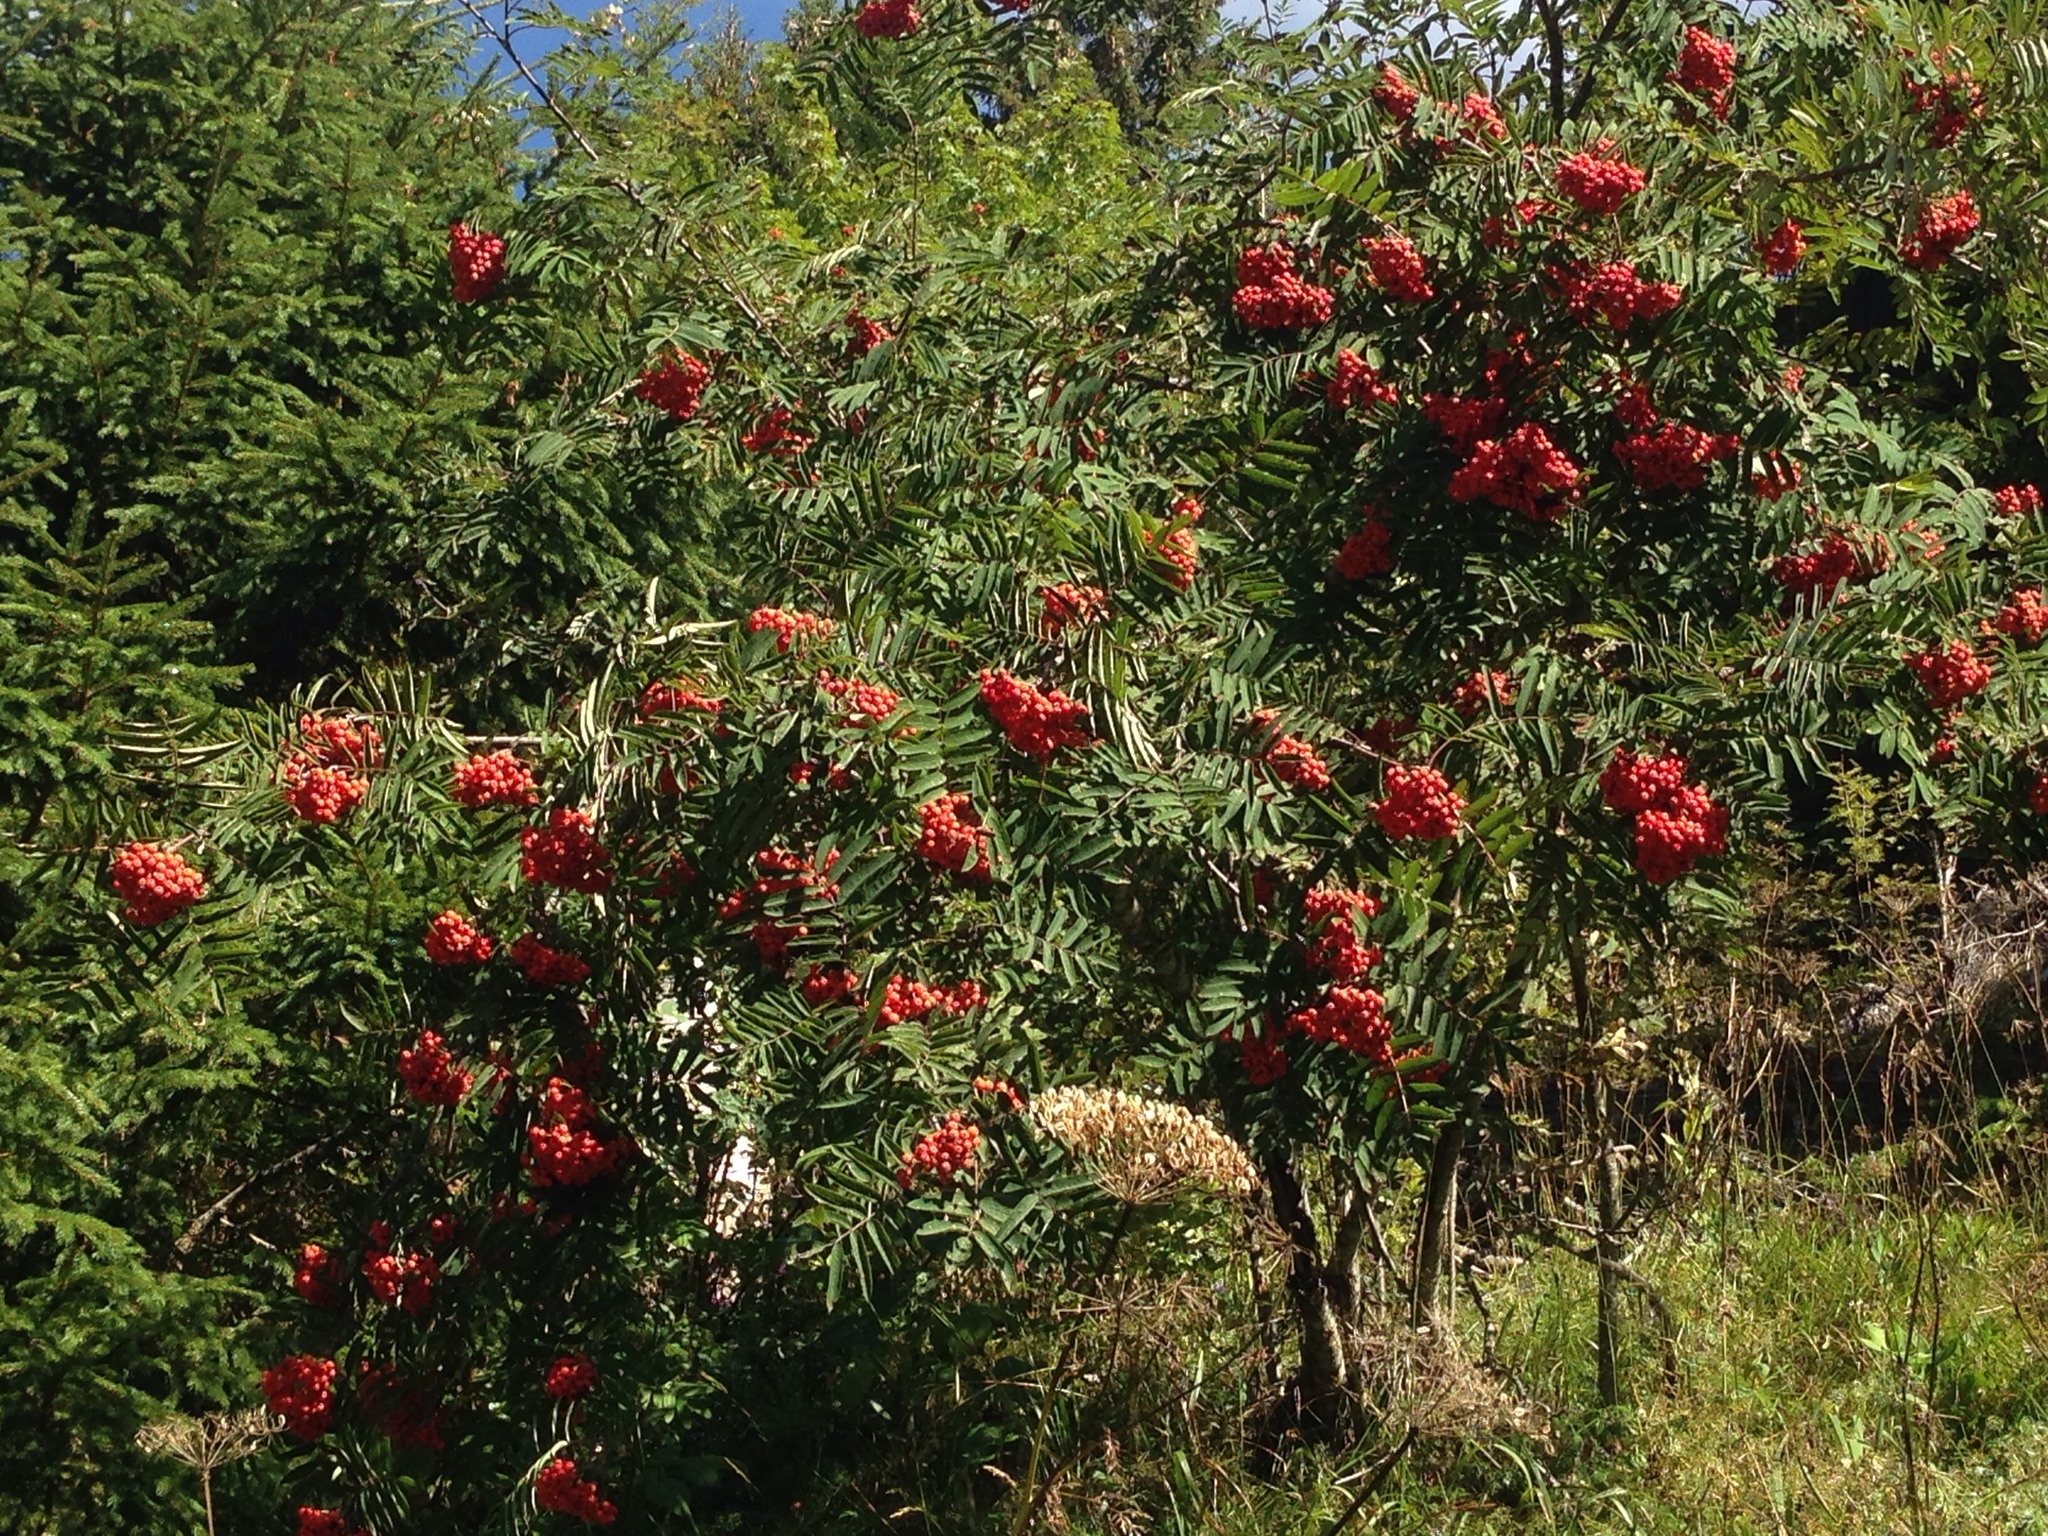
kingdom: Plantae
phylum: Tracheophyta
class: Magnoliopsida
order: Rosales
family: Rosaceae
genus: Sorbus
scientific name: Sorbus aucuparia
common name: Rowan
